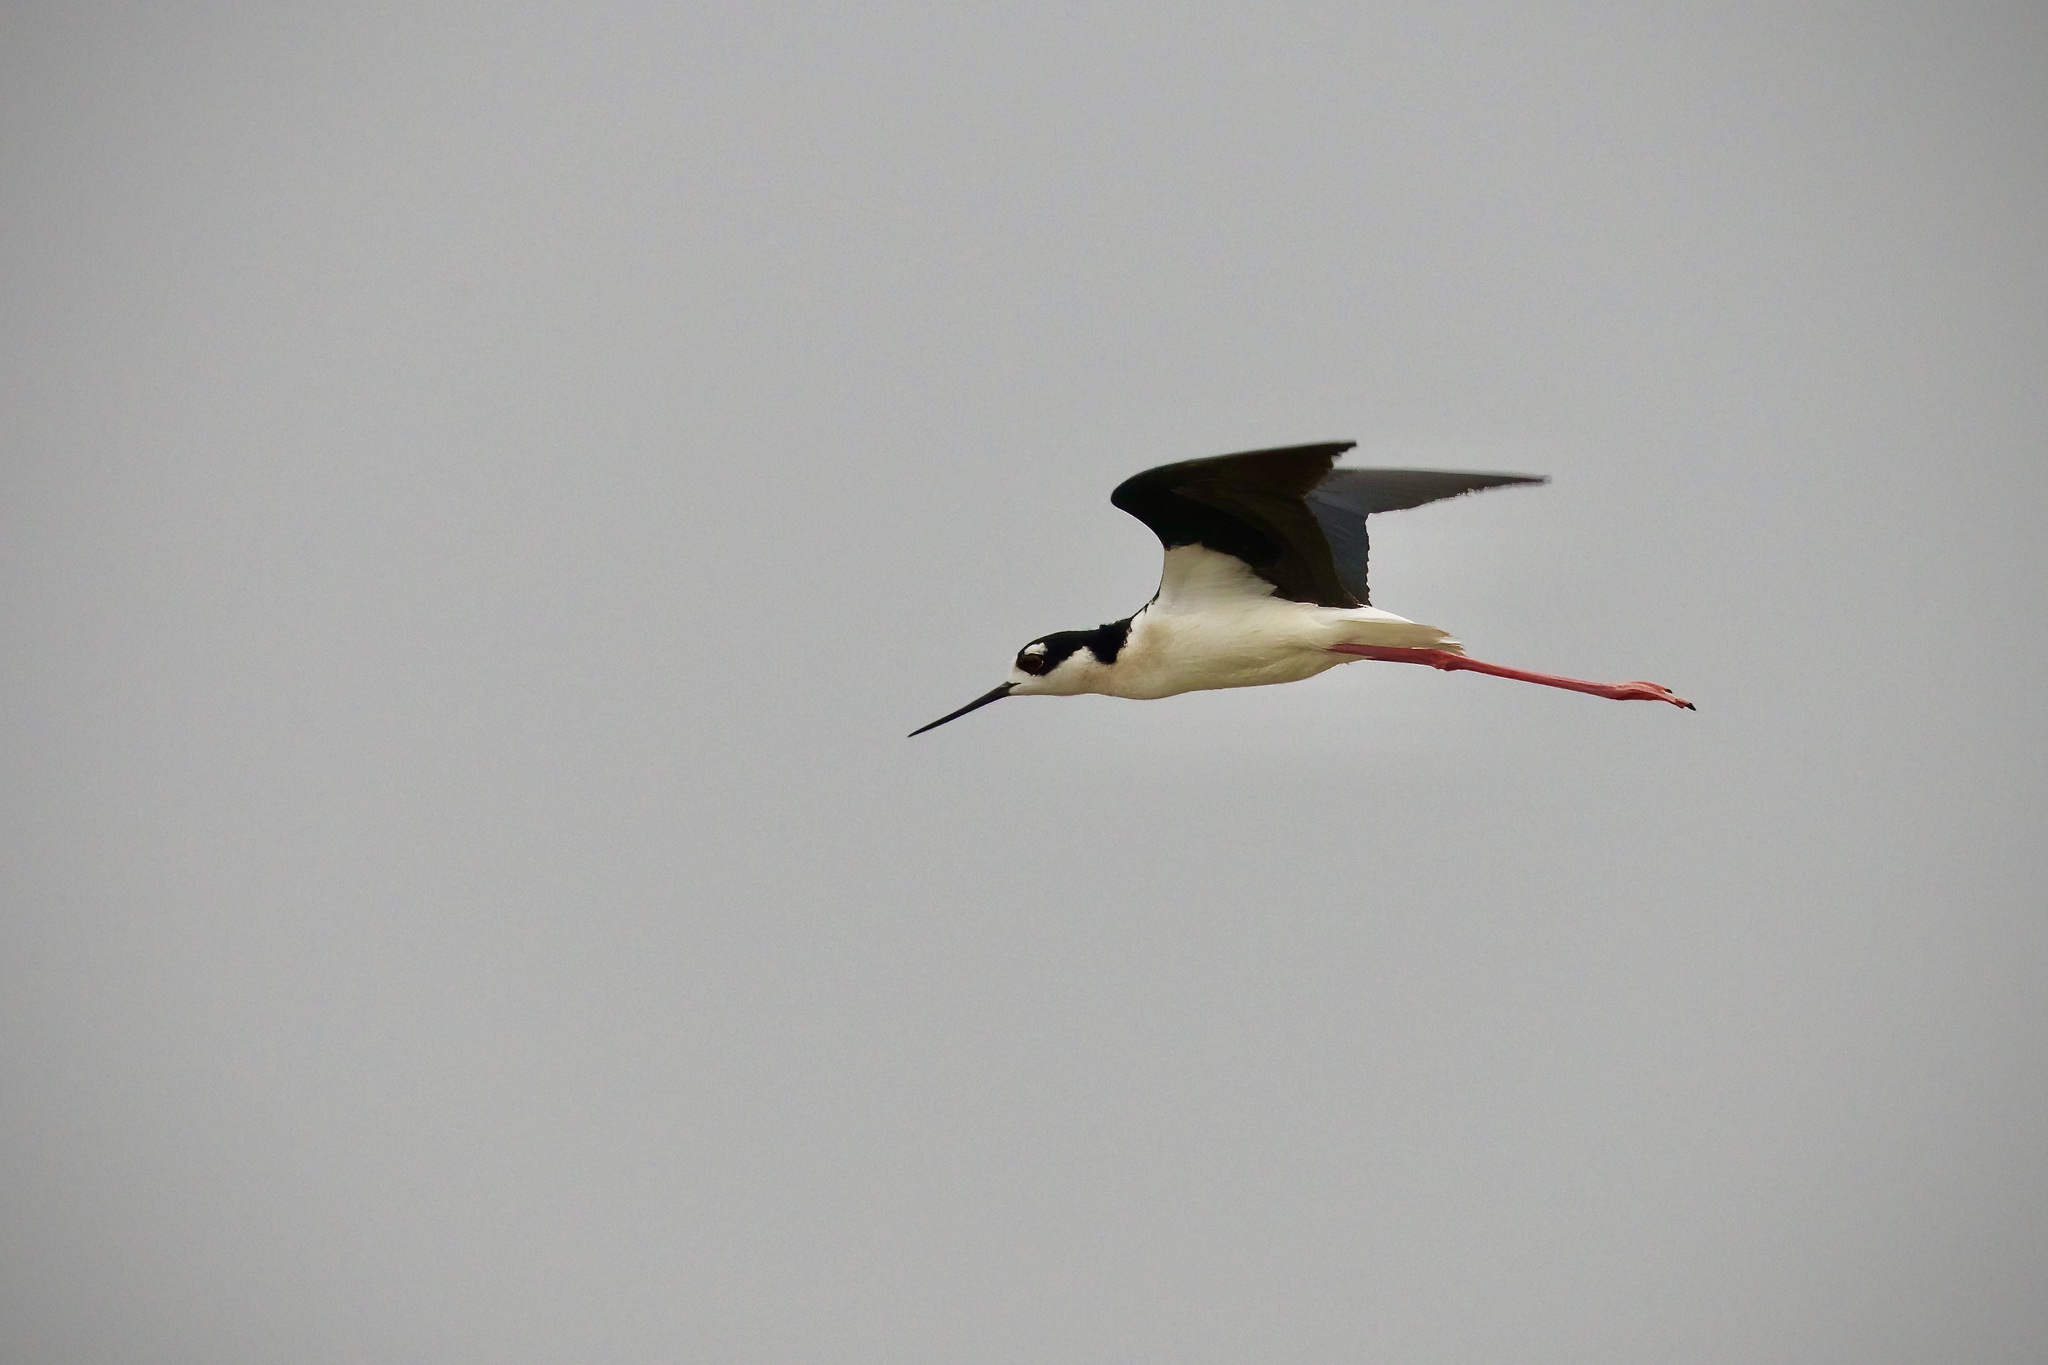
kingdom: Animalia
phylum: Chordata
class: Aves
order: Charadriiformes
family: Recurvirostridae
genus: Himantopus
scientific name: Himantopus mexicanus
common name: Black-necked stilt
